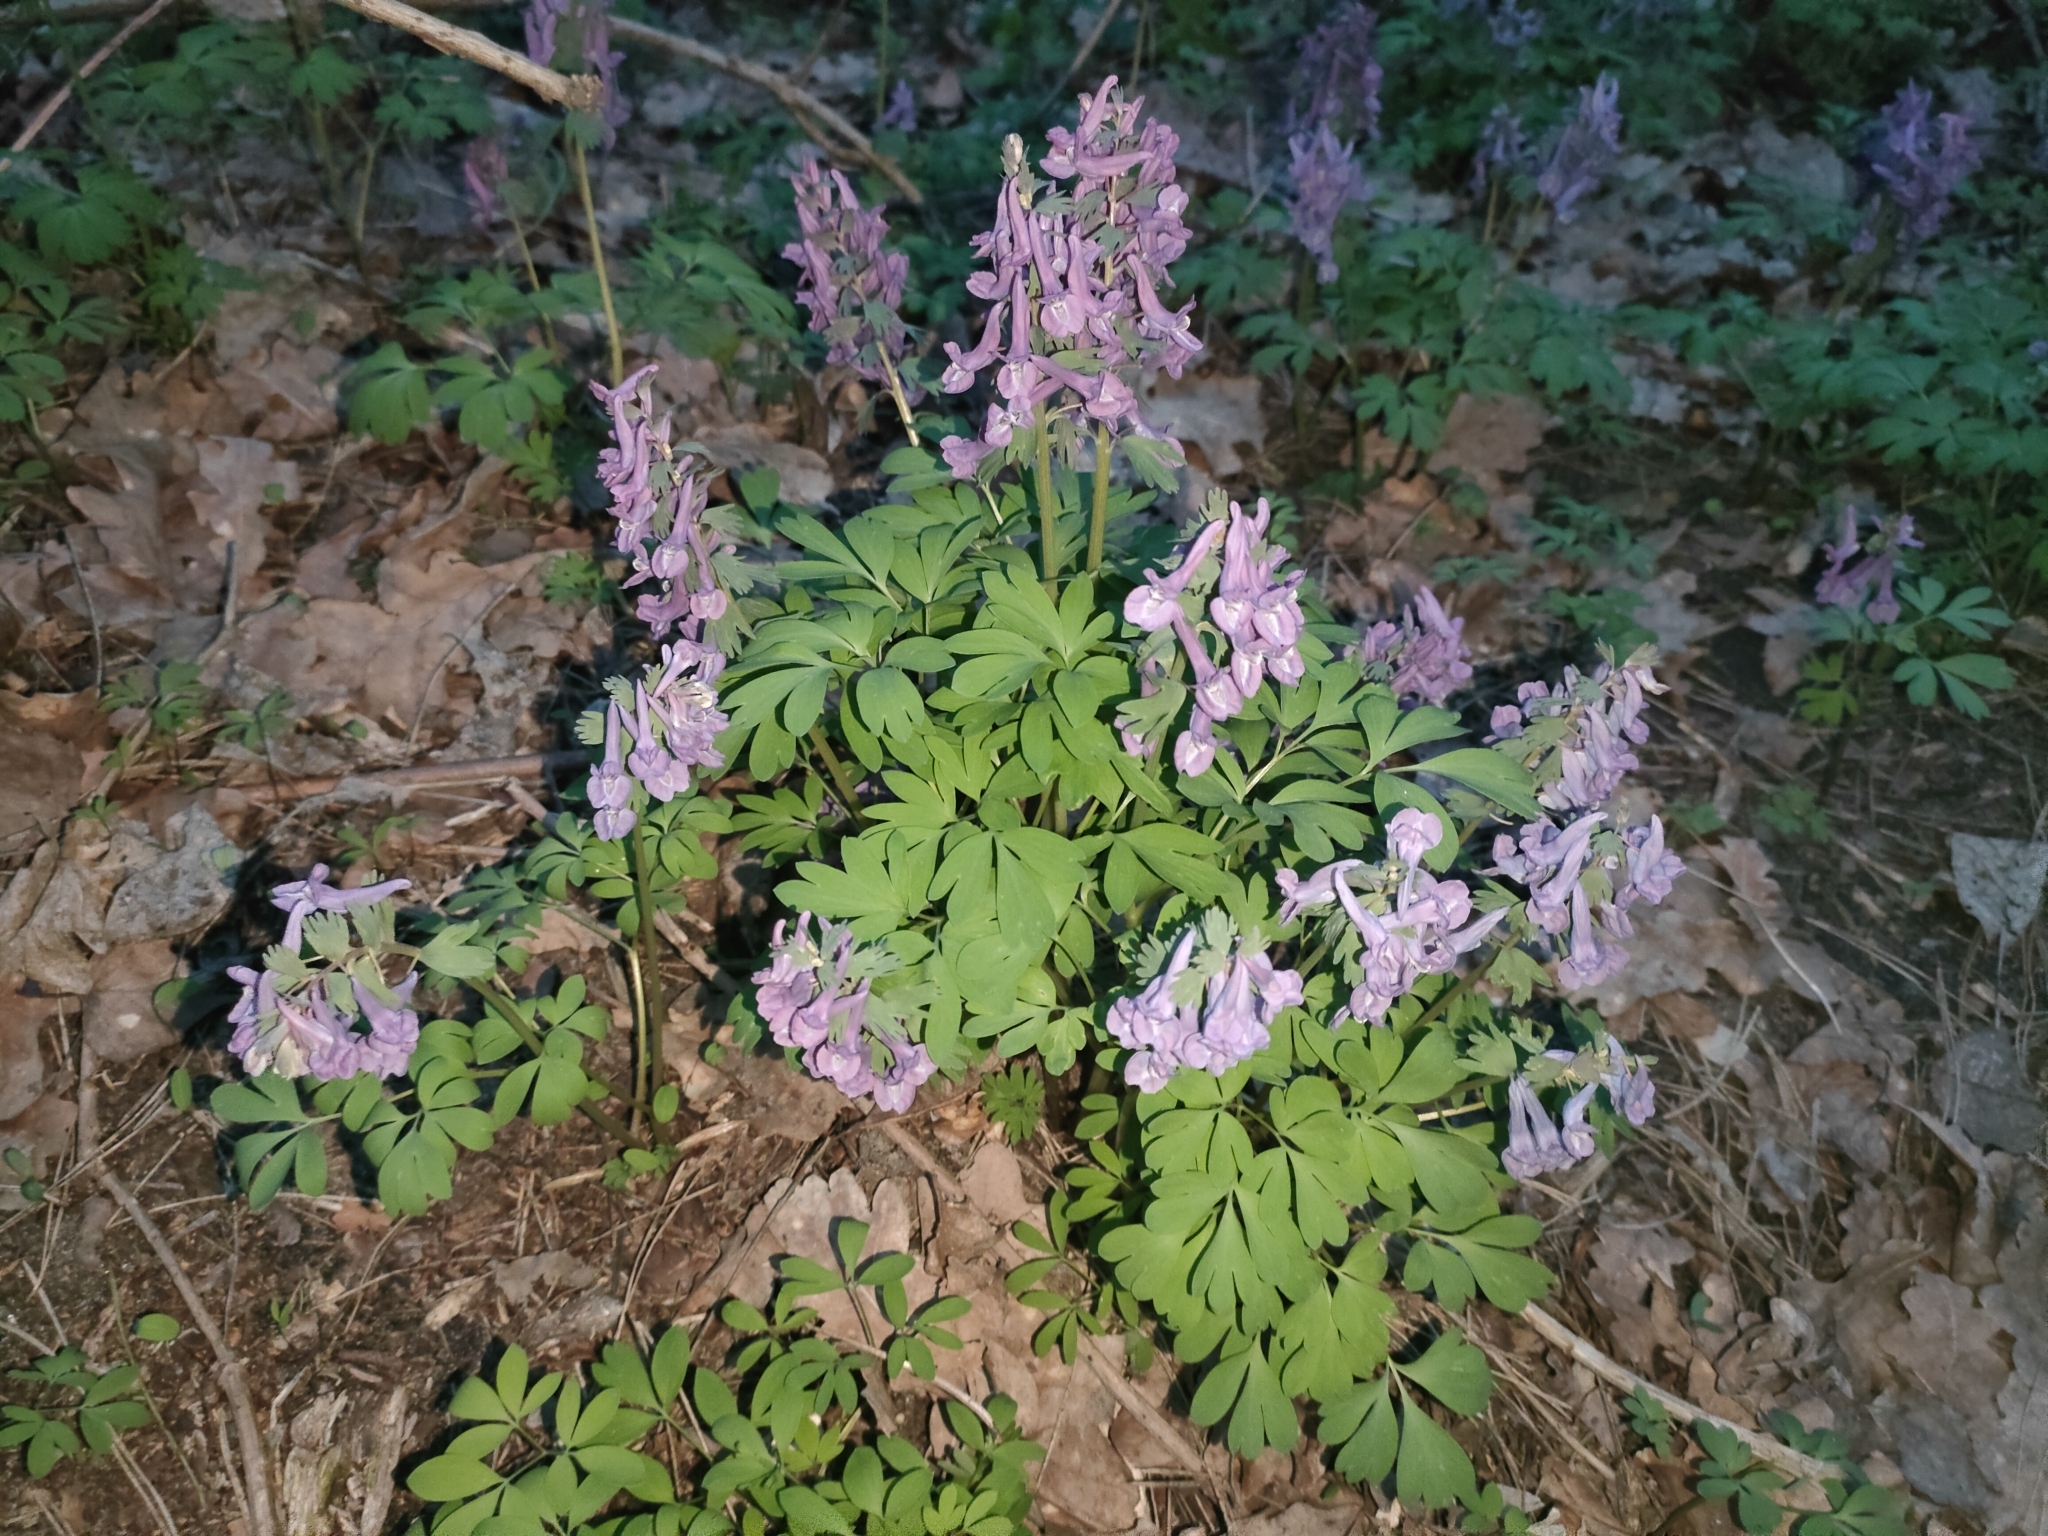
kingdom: Plantae
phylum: Tracheophyta
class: Magnoliopsida
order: Ranunculales
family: Papaveraceae
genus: Corydalis
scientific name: Corydalis solida
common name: Bird-in-a-bush
